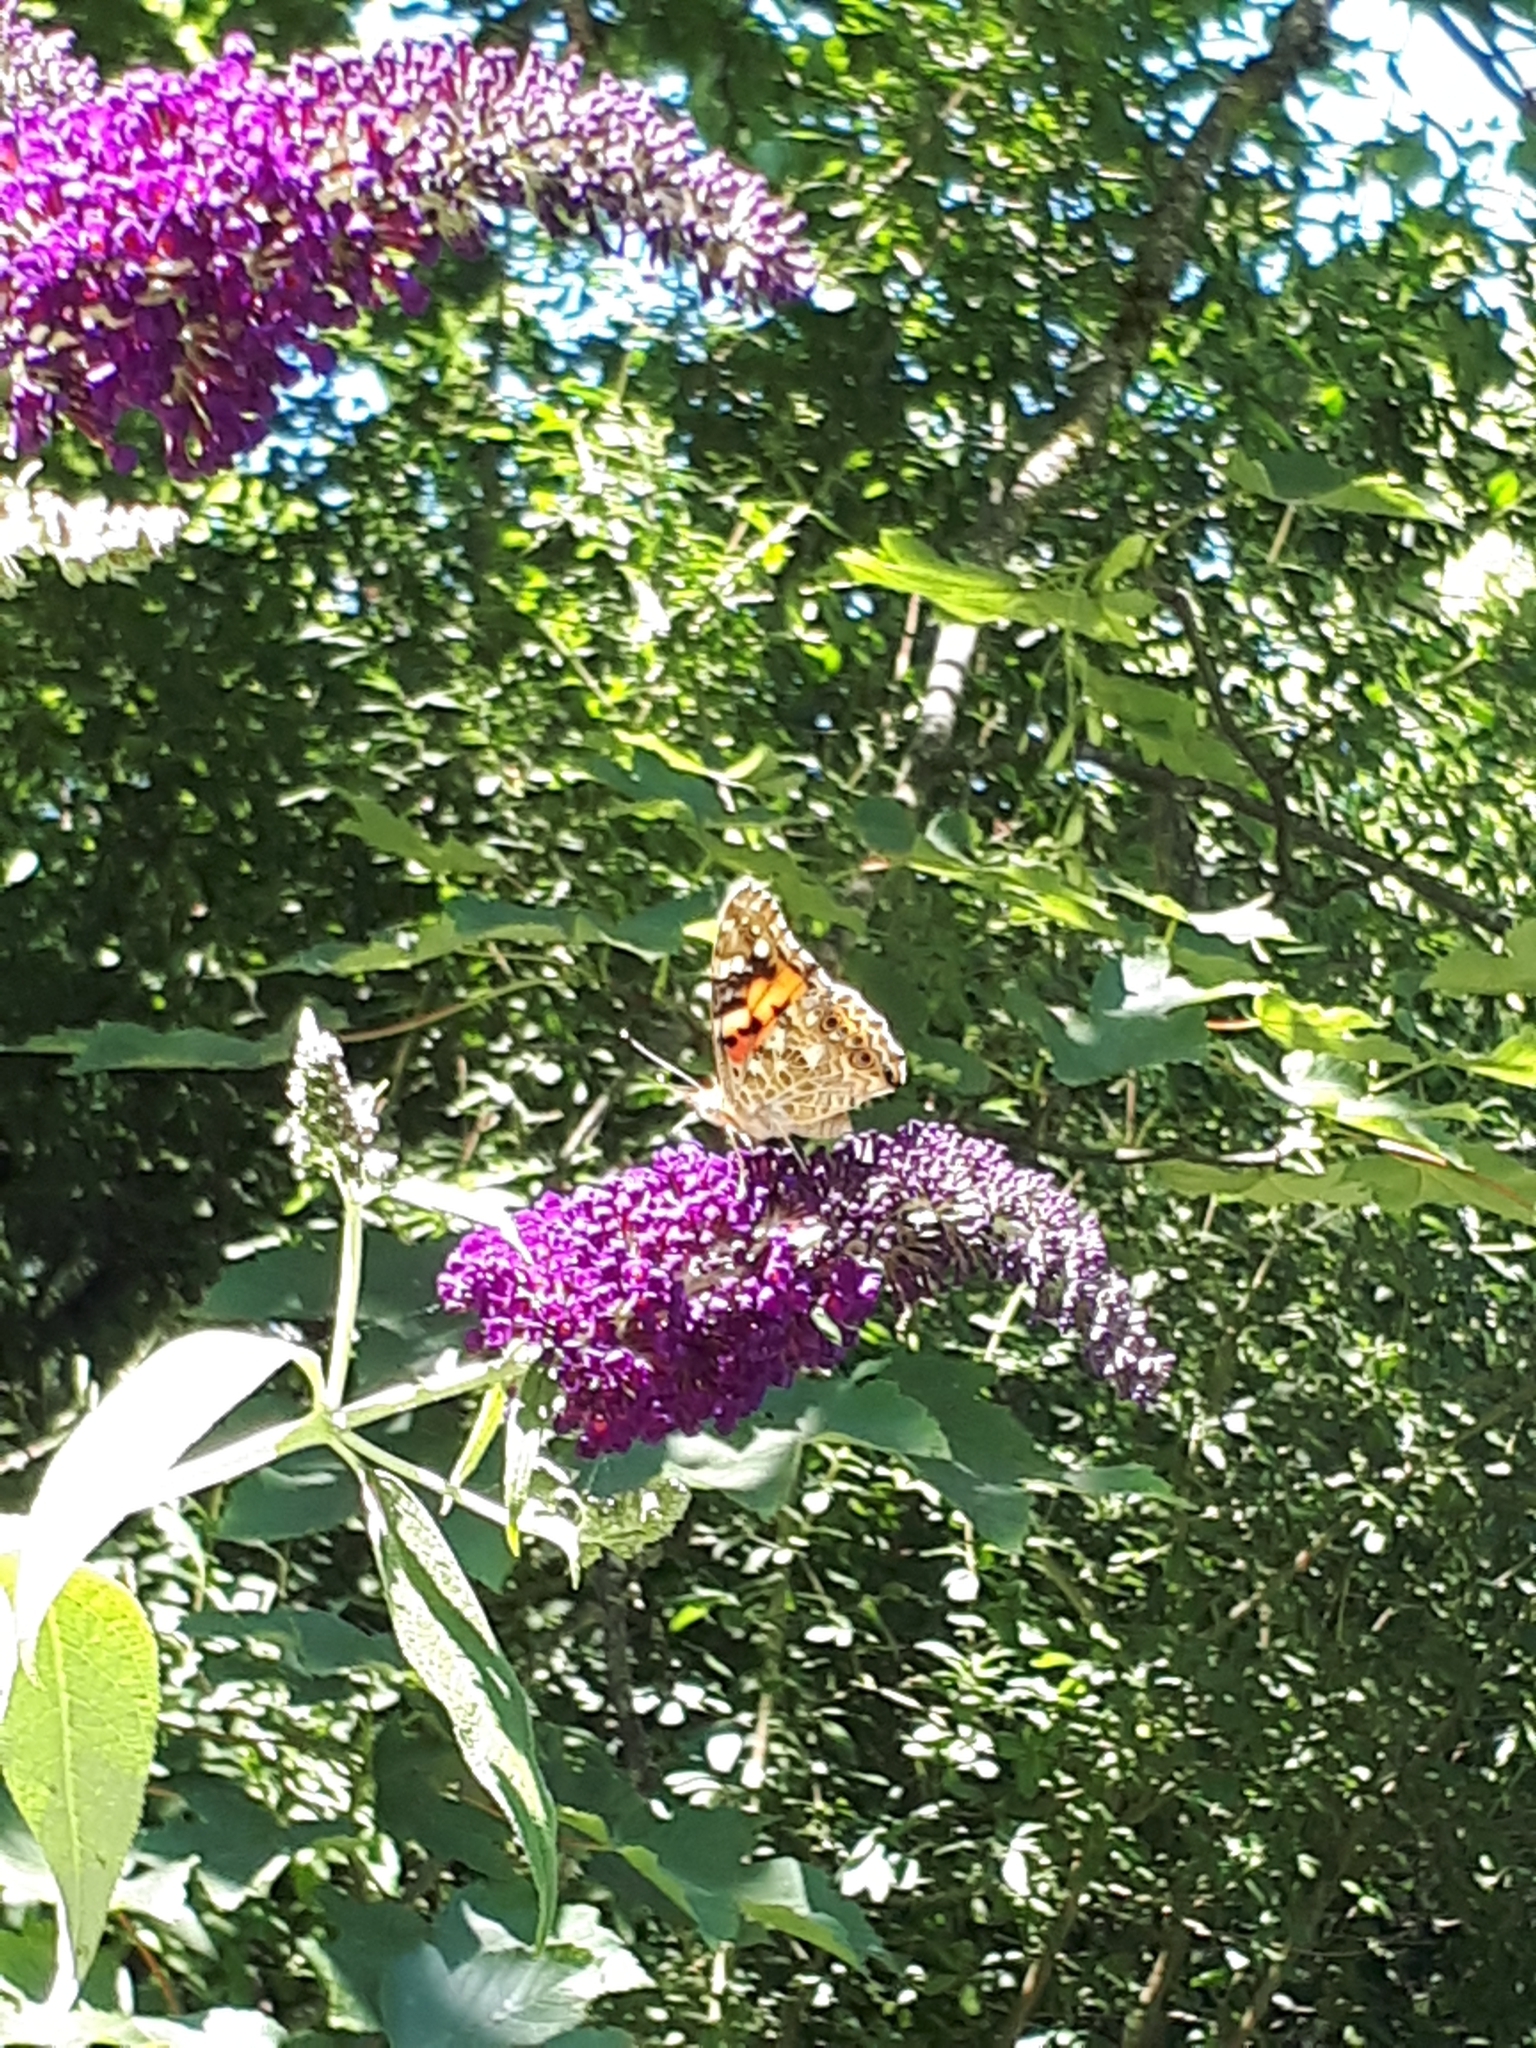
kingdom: Animalia
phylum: Arthropoda
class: Insecta
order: Lepidoptera
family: Nymphalidae
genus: Vanessa
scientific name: Vanessa cardui
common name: Painted lady
